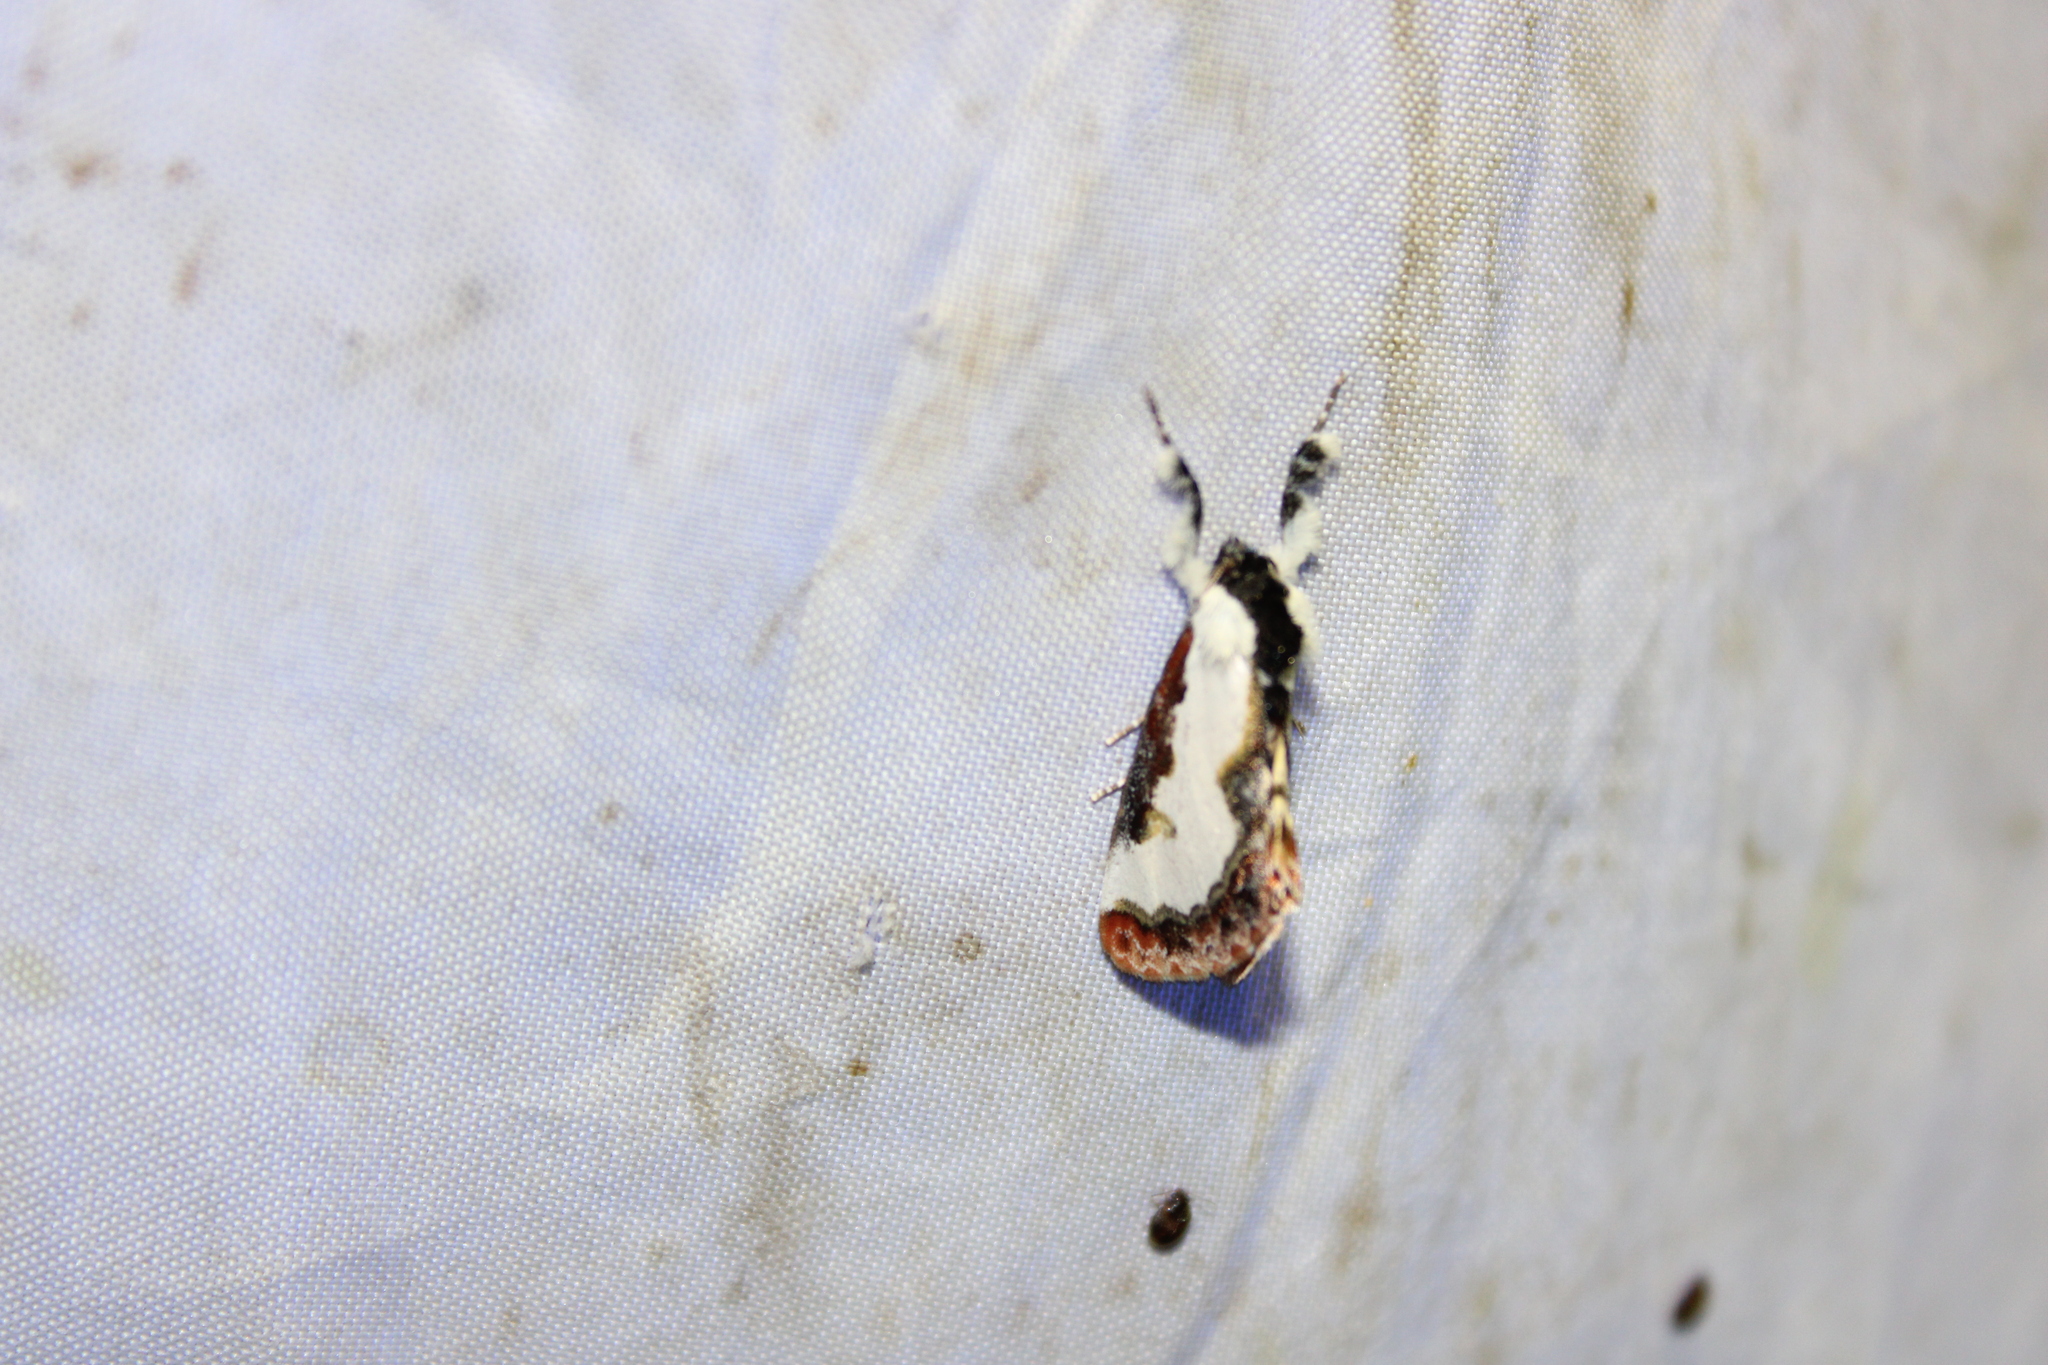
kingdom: Animalia
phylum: Arthropoda
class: Insecta
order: Lepidoptera
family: Noctuidae
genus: Eudryas
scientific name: Eudryas unio
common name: Pearly wood-nymph
